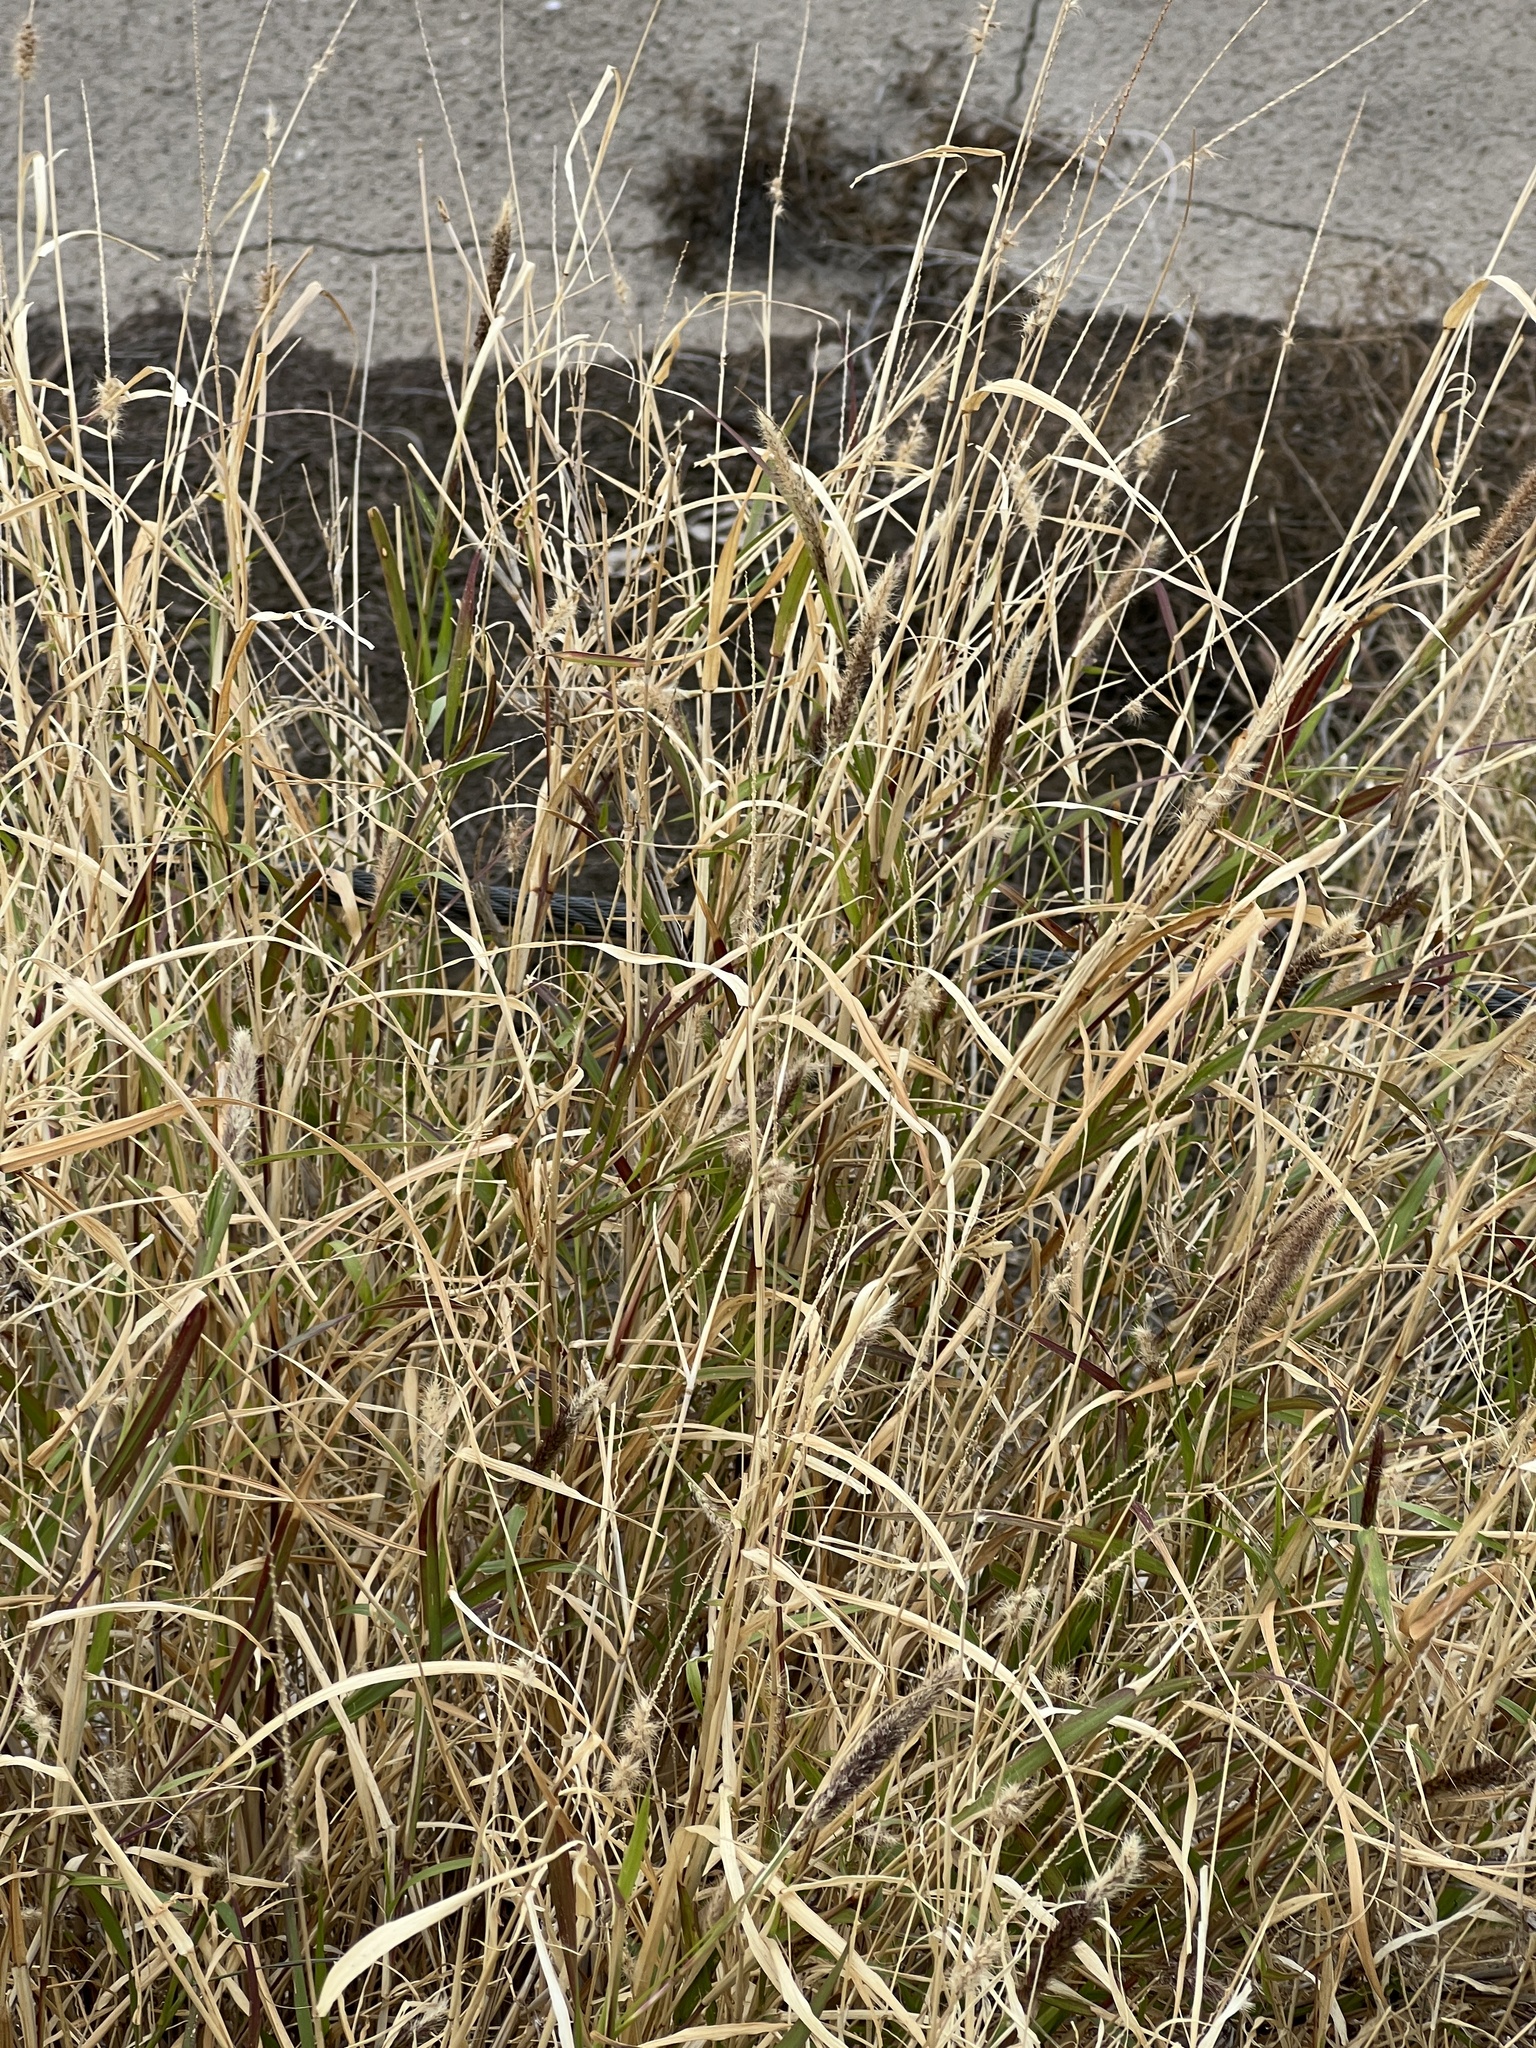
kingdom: Plantae
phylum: Tracheophyta
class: Liliopsida
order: Poales
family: Poaceae
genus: Cenchrus
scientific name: Cenchrus ciliaris
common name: Buffelgrass
